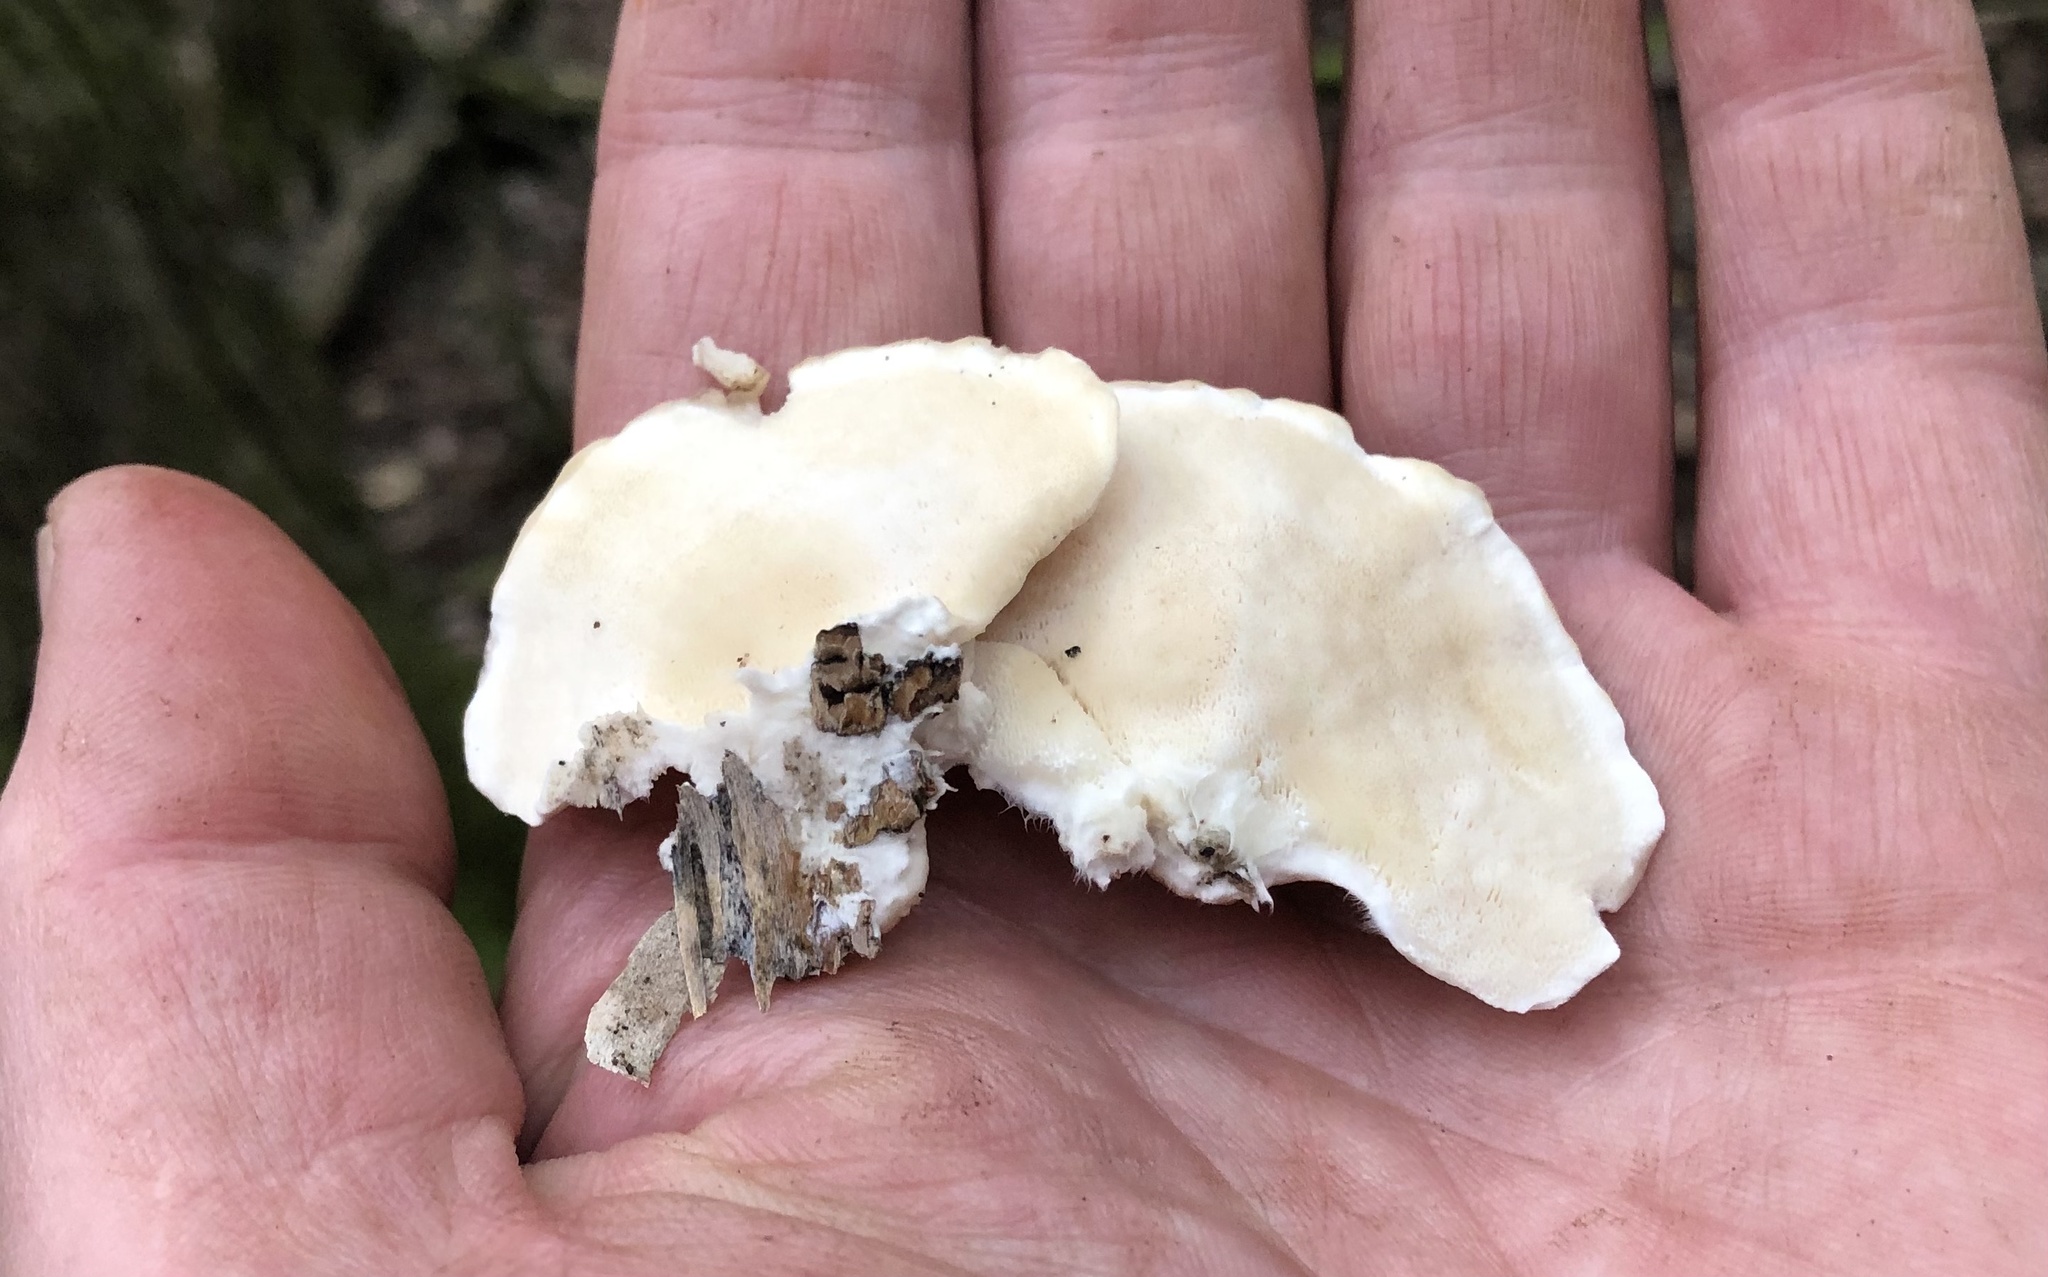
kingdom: Fungi
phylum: Basidiomycota
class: Agaricomycetes
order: Polyporales
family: Polyporaceae
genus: Trametes
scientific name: Trametes pubescens
